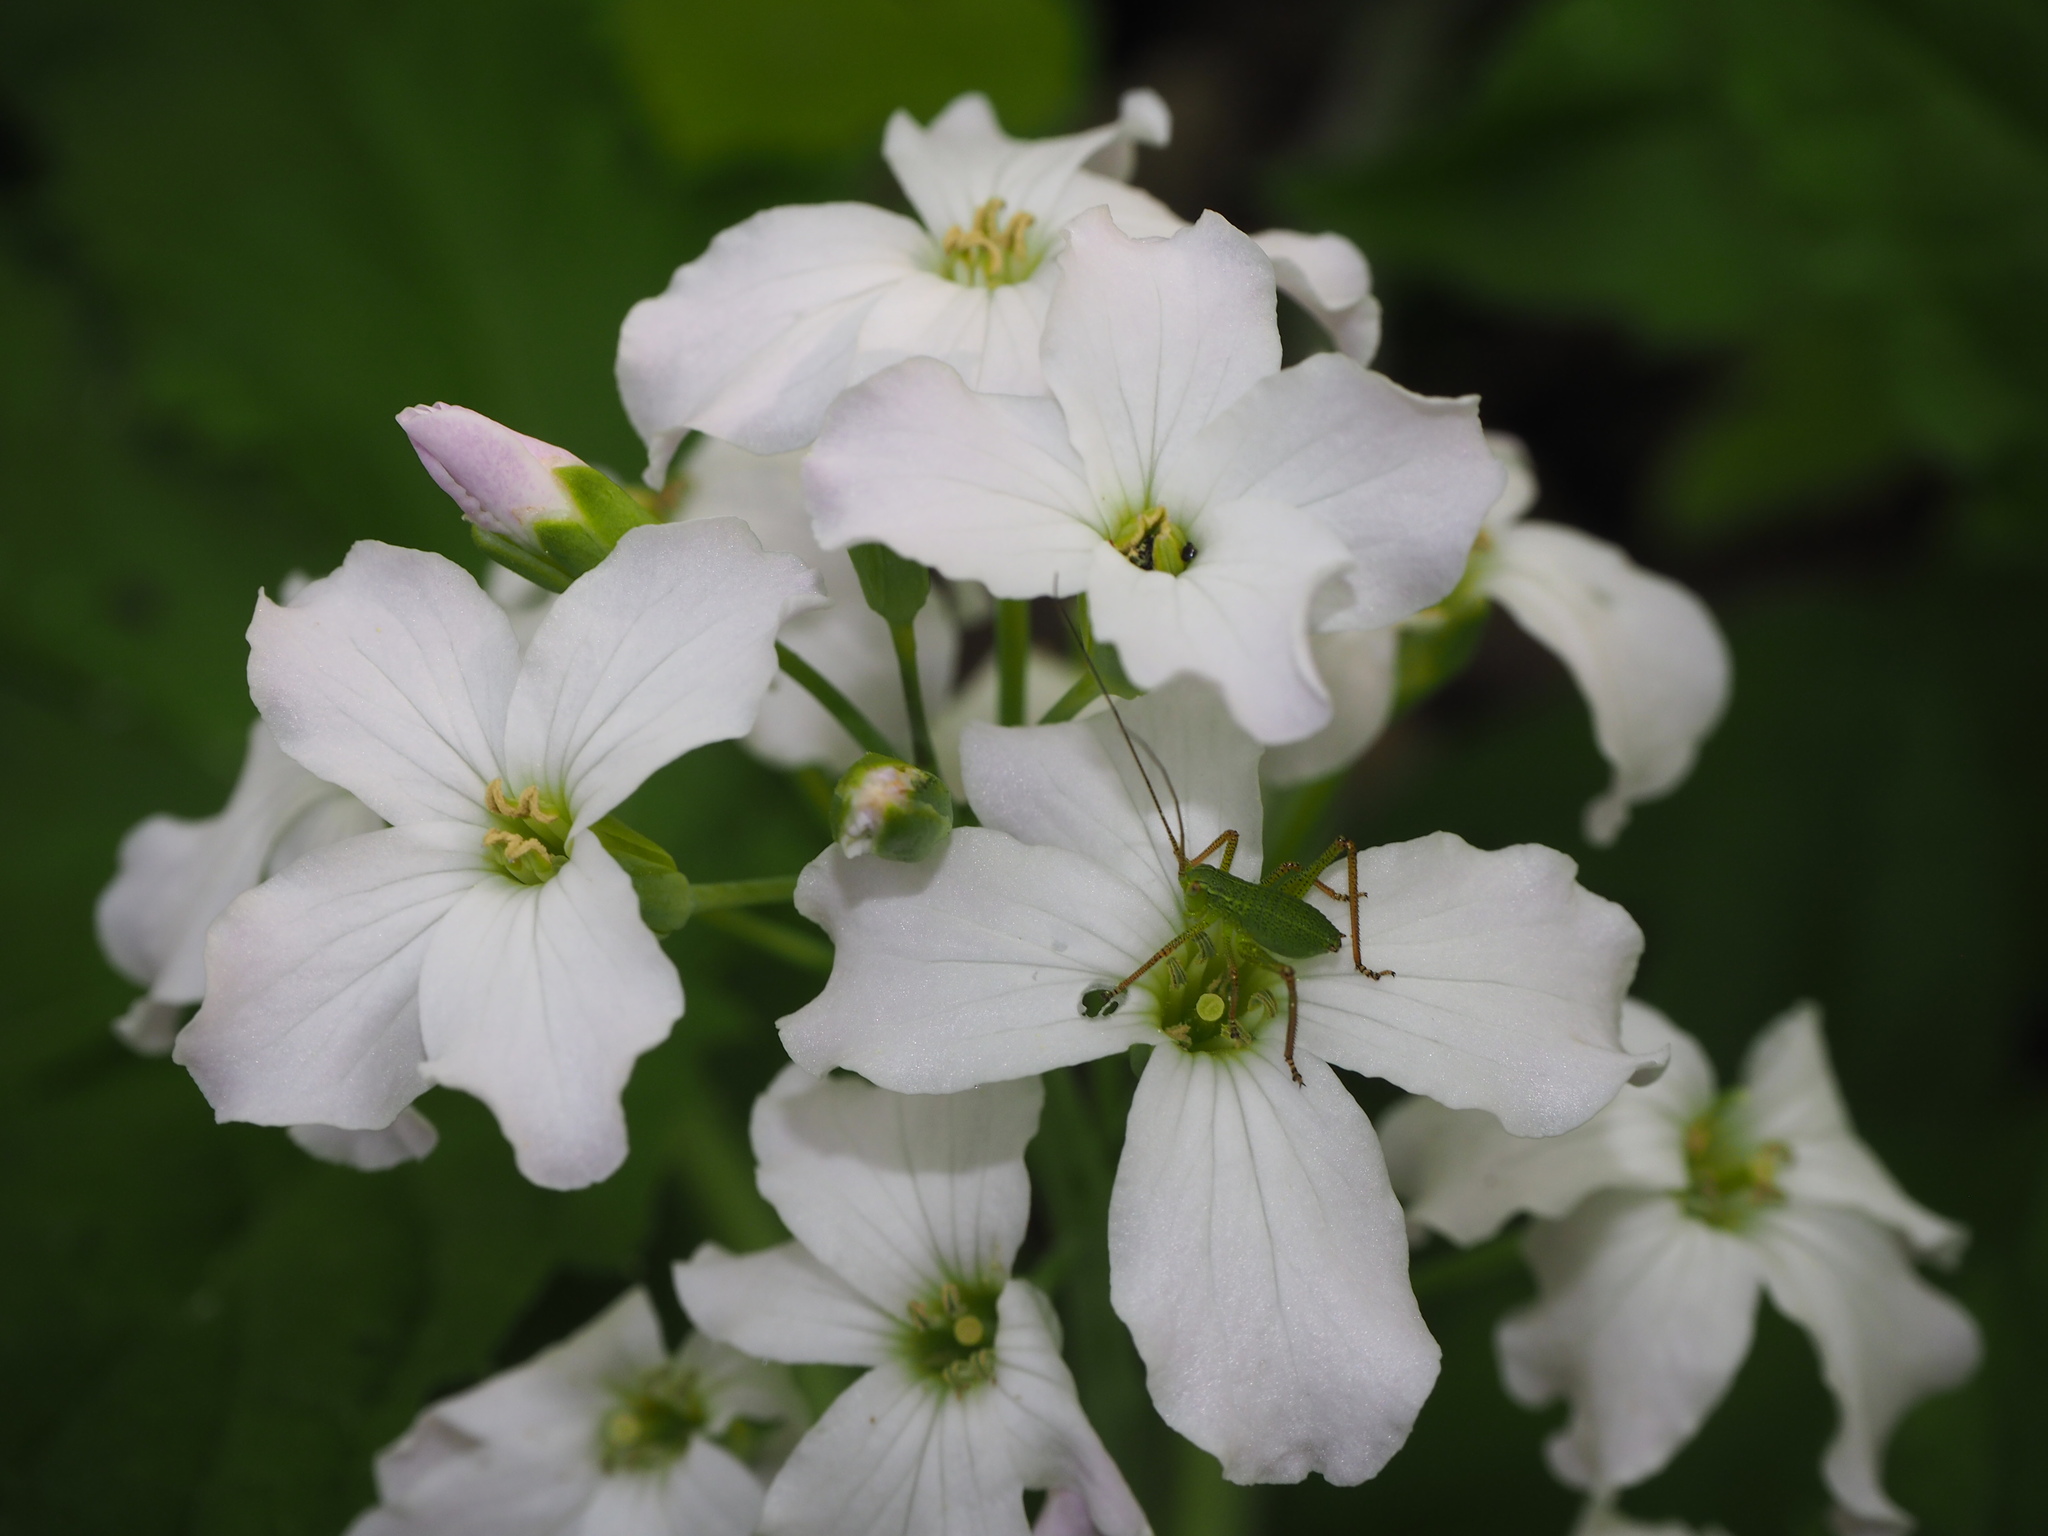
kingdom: Animalia
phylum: Arthropoda
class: Insecta
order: Orthoptera
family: Tettigoniidae
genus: Barbitistes
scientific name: Barbitistes obtusus
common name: Alpine saw bush-cricket
